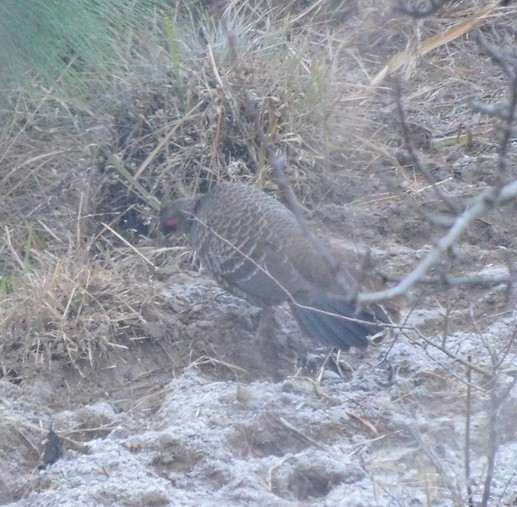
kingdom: Animalia
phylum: Chordata
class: Aves
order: Galliformes
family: Phasianidae
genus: Lophura
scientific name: Lophura leucomelanos
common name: Kalij pheasant
